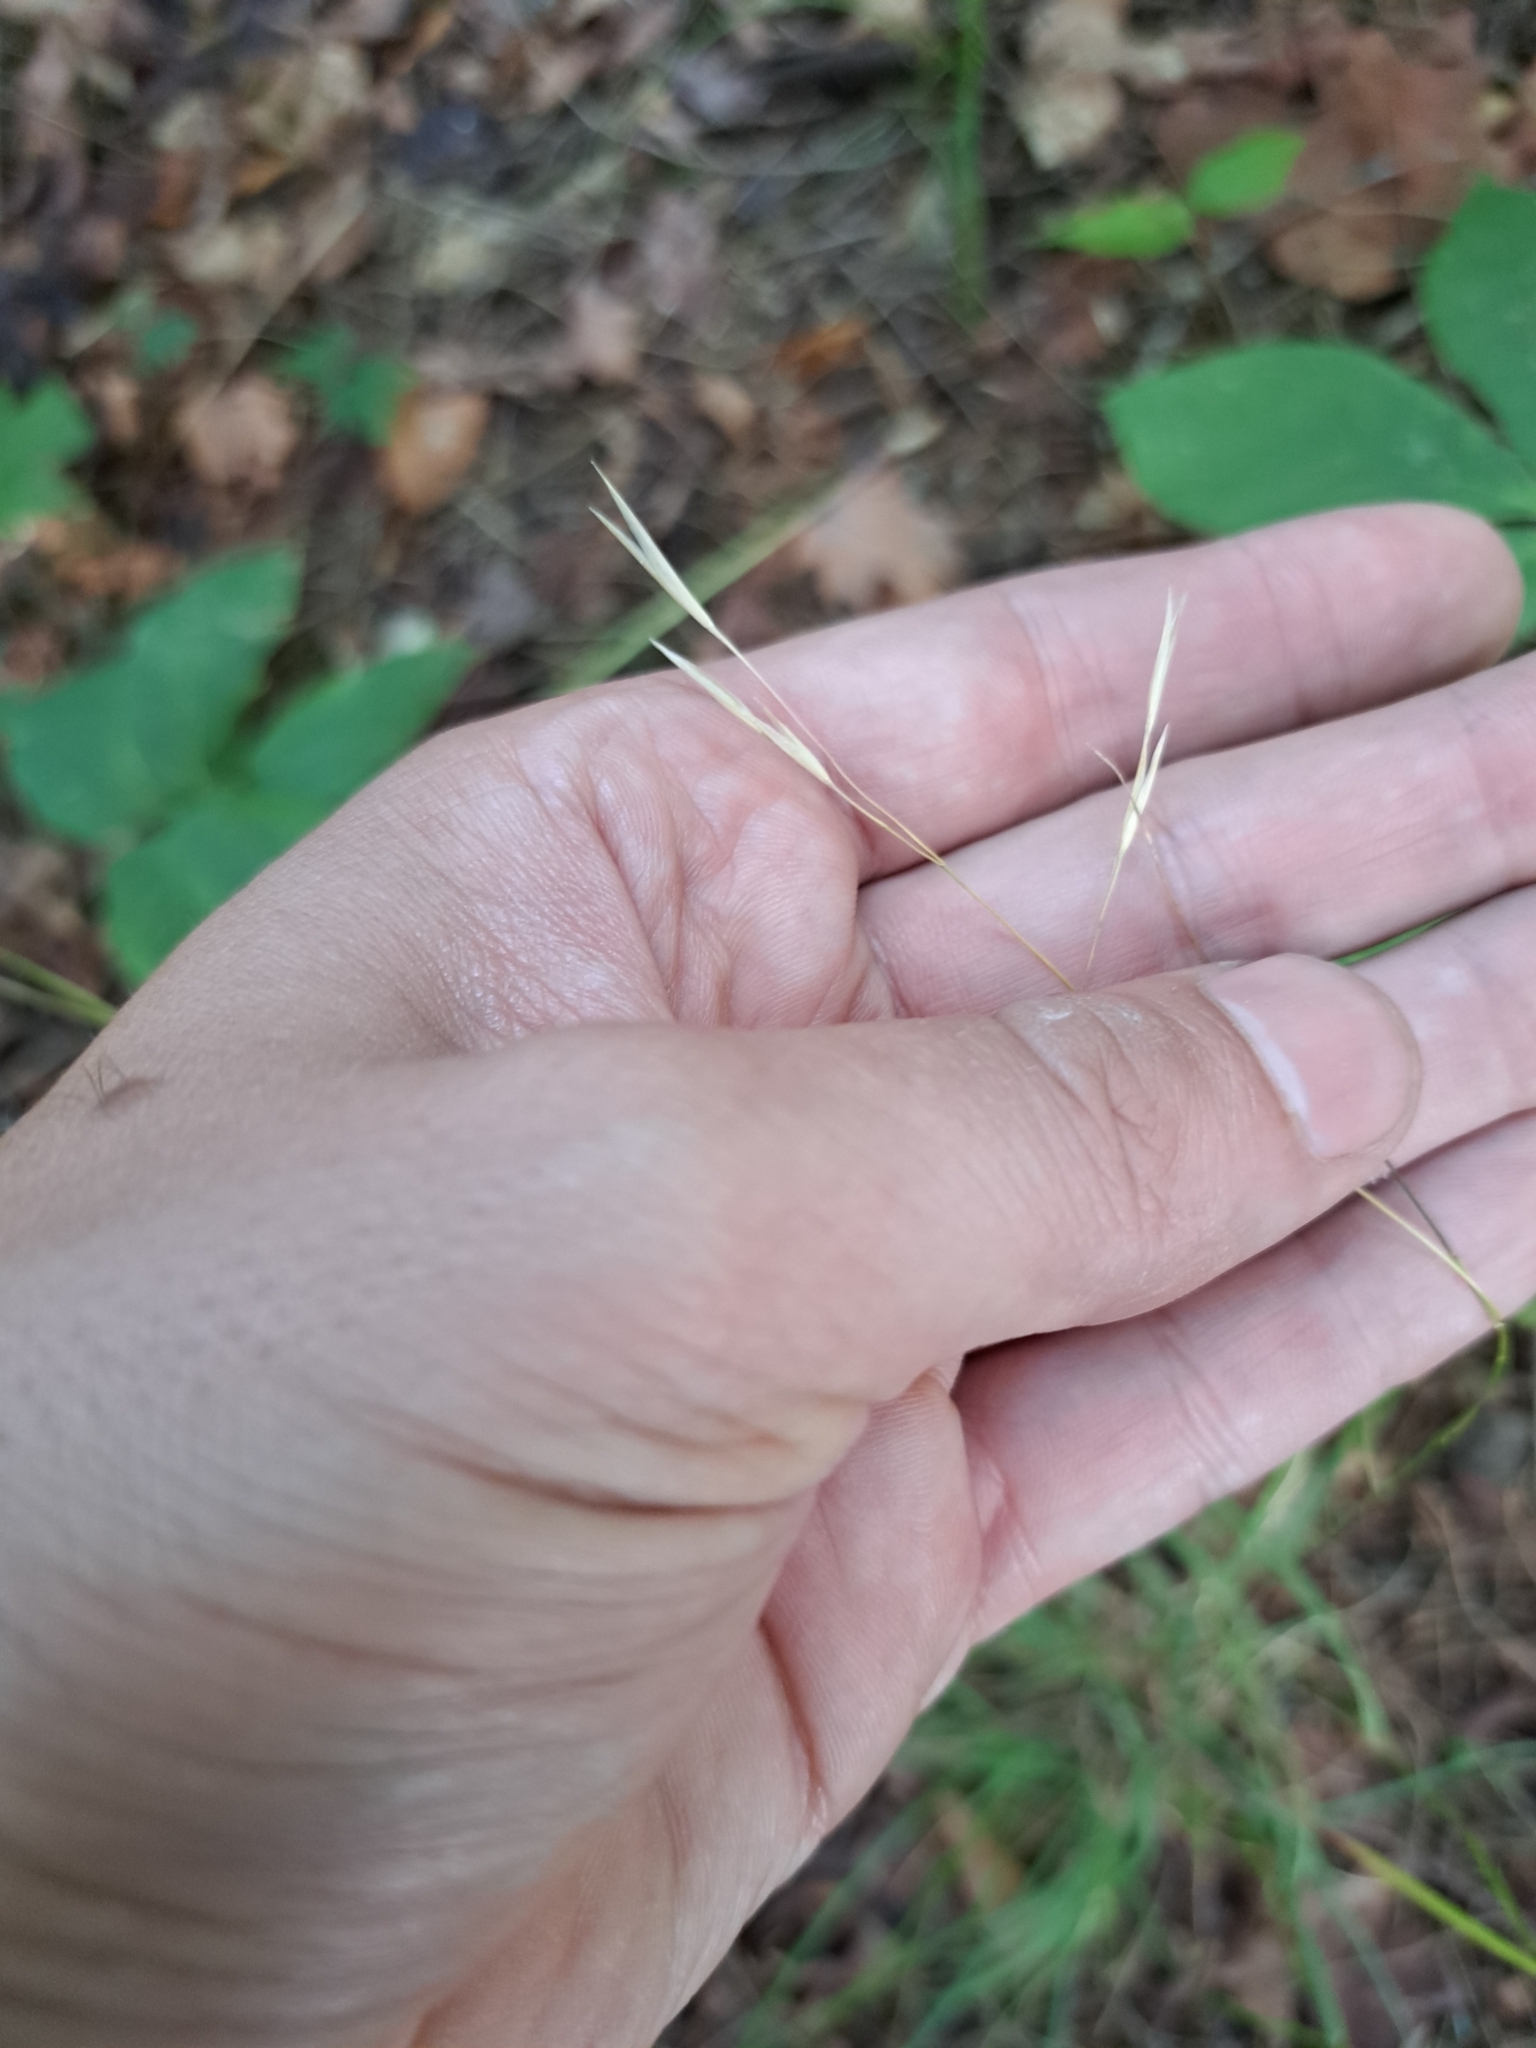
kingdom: Plantae
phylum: Tracheophyta
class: Liliopsida
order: Poales
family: Poaceae
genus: Danthonia
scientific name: Danthonia spicata
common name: Common wild oatgrass
